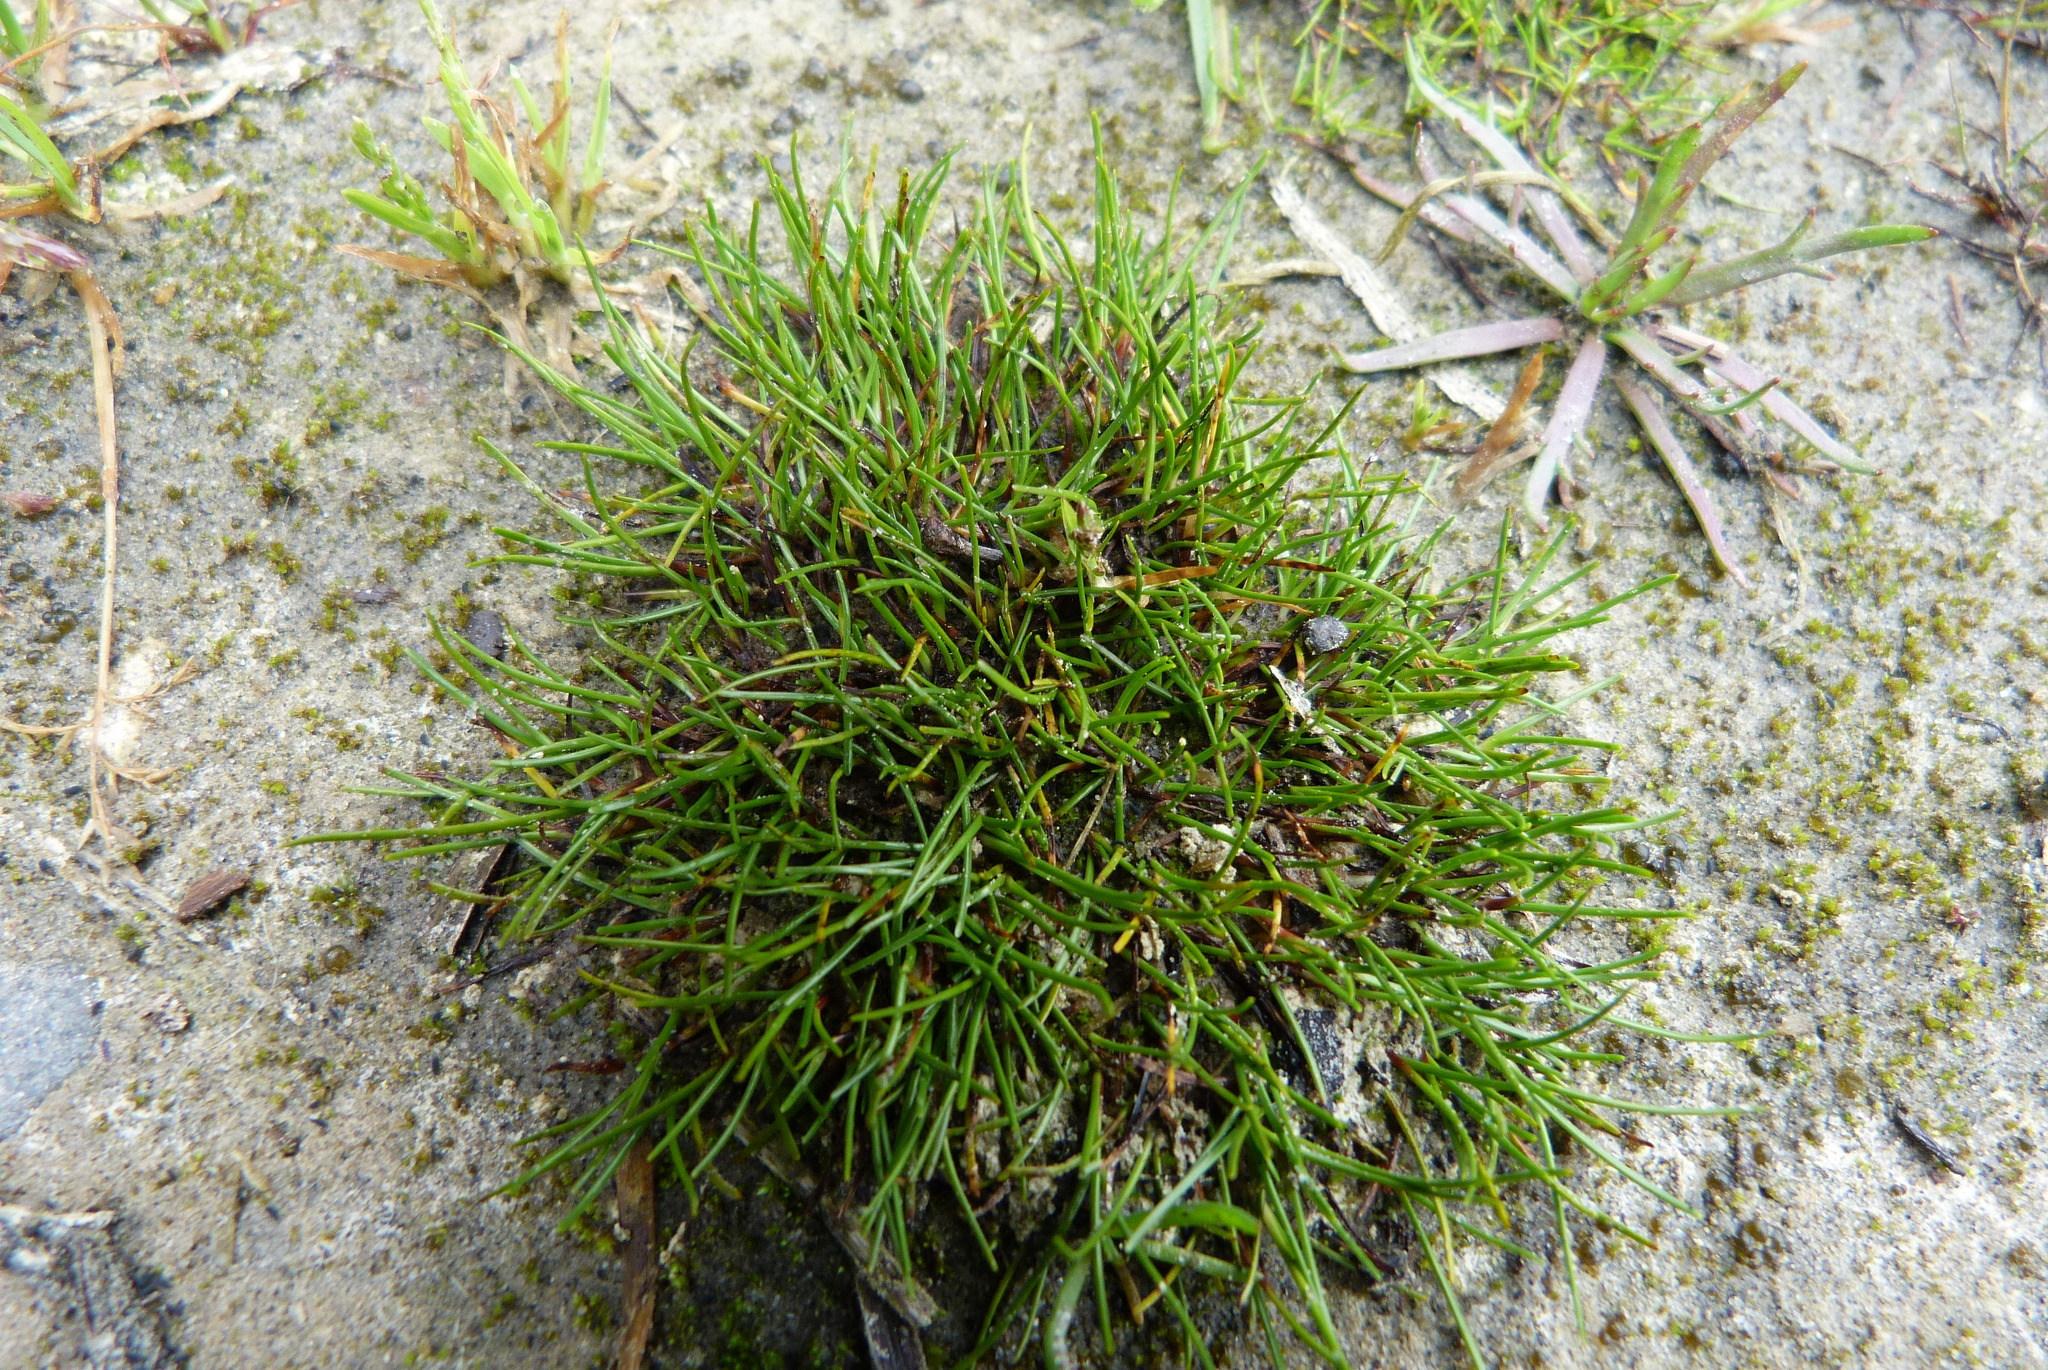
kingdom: Plantae
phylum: Tracheophyta
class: Liliopsida
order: Poales
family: Cyperaceae
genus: Schoenus
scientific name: Schoenus maschalinus
